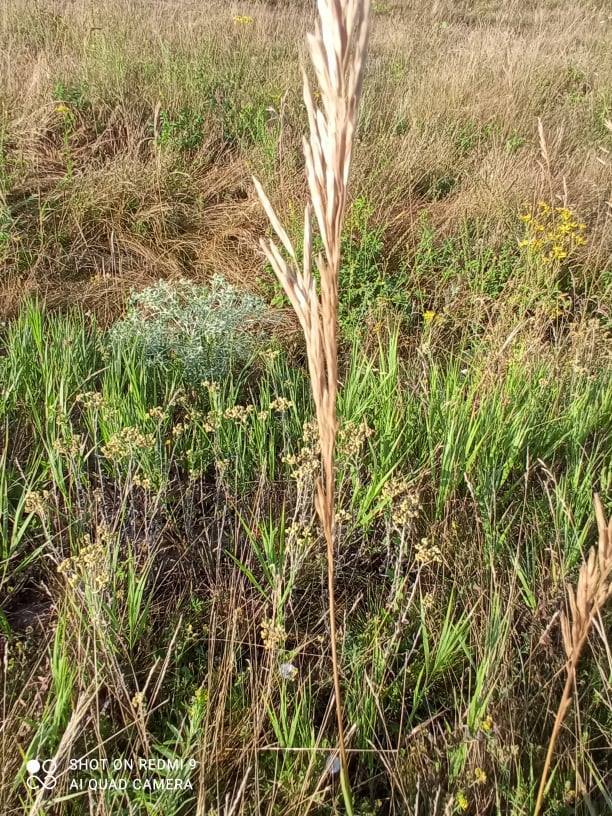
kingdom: Plantae
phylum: Tracheophyta
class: Liliopsida
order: Poales
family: Poaceae
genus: Bromus
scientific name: Bromus inermis
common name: Smooth brome
